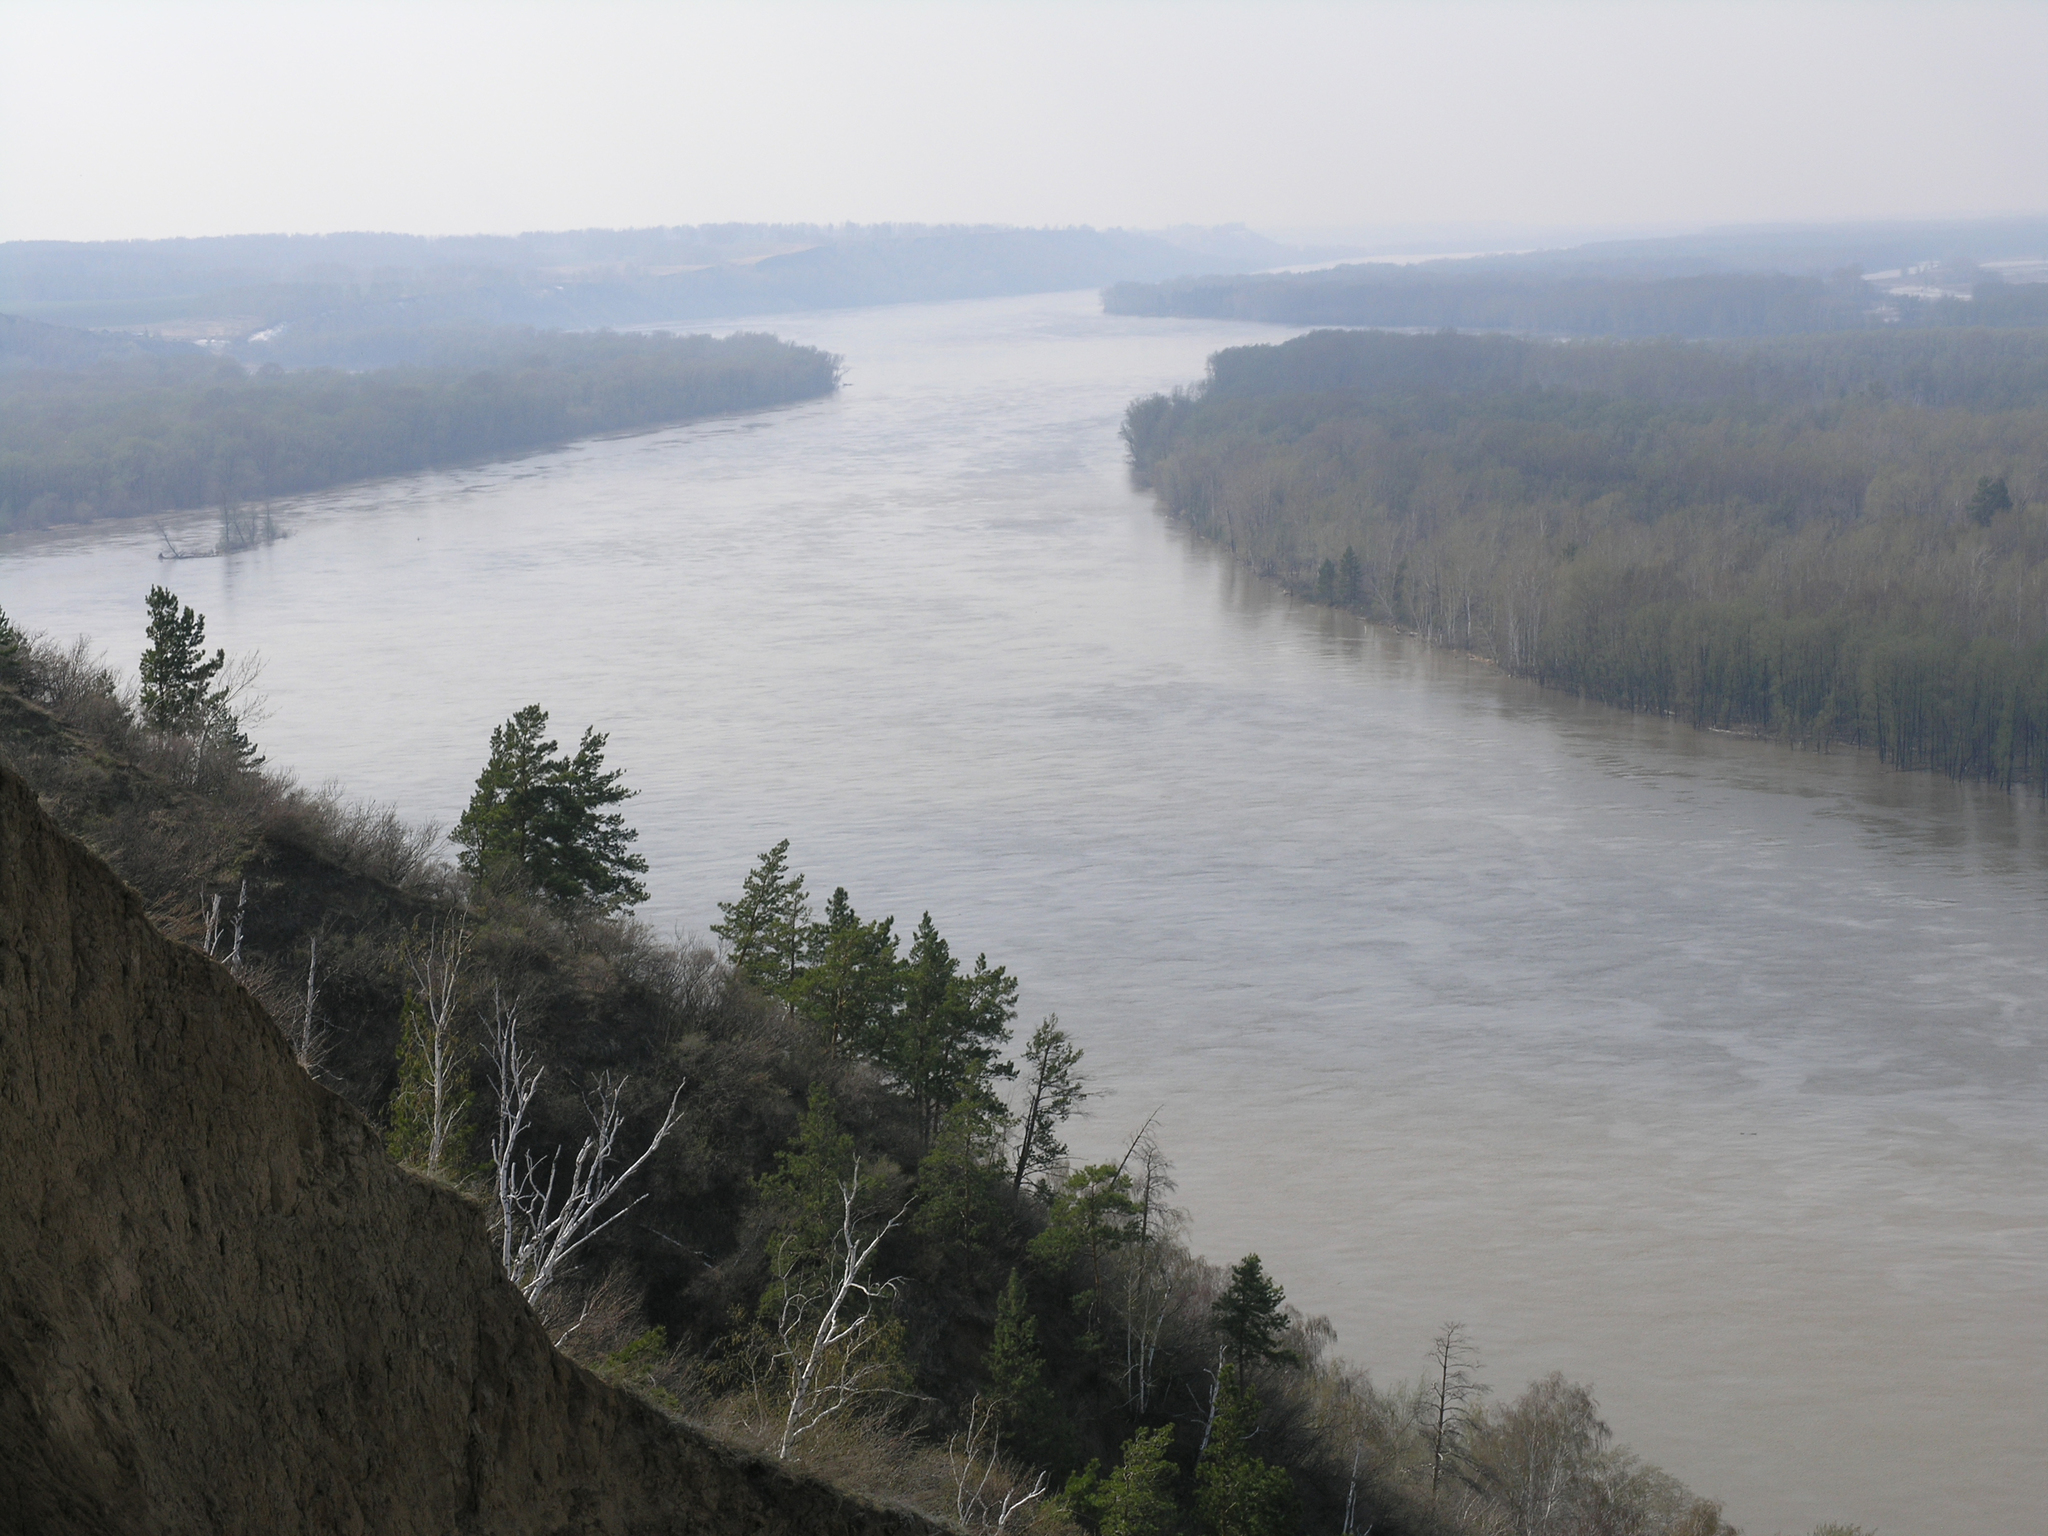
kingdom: Plantae
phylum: Tracheophyta
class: Pinopsida
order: Pinales
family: Pinaceae
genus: Pinus
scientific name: Pinus sylvestris
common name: Scots pine
